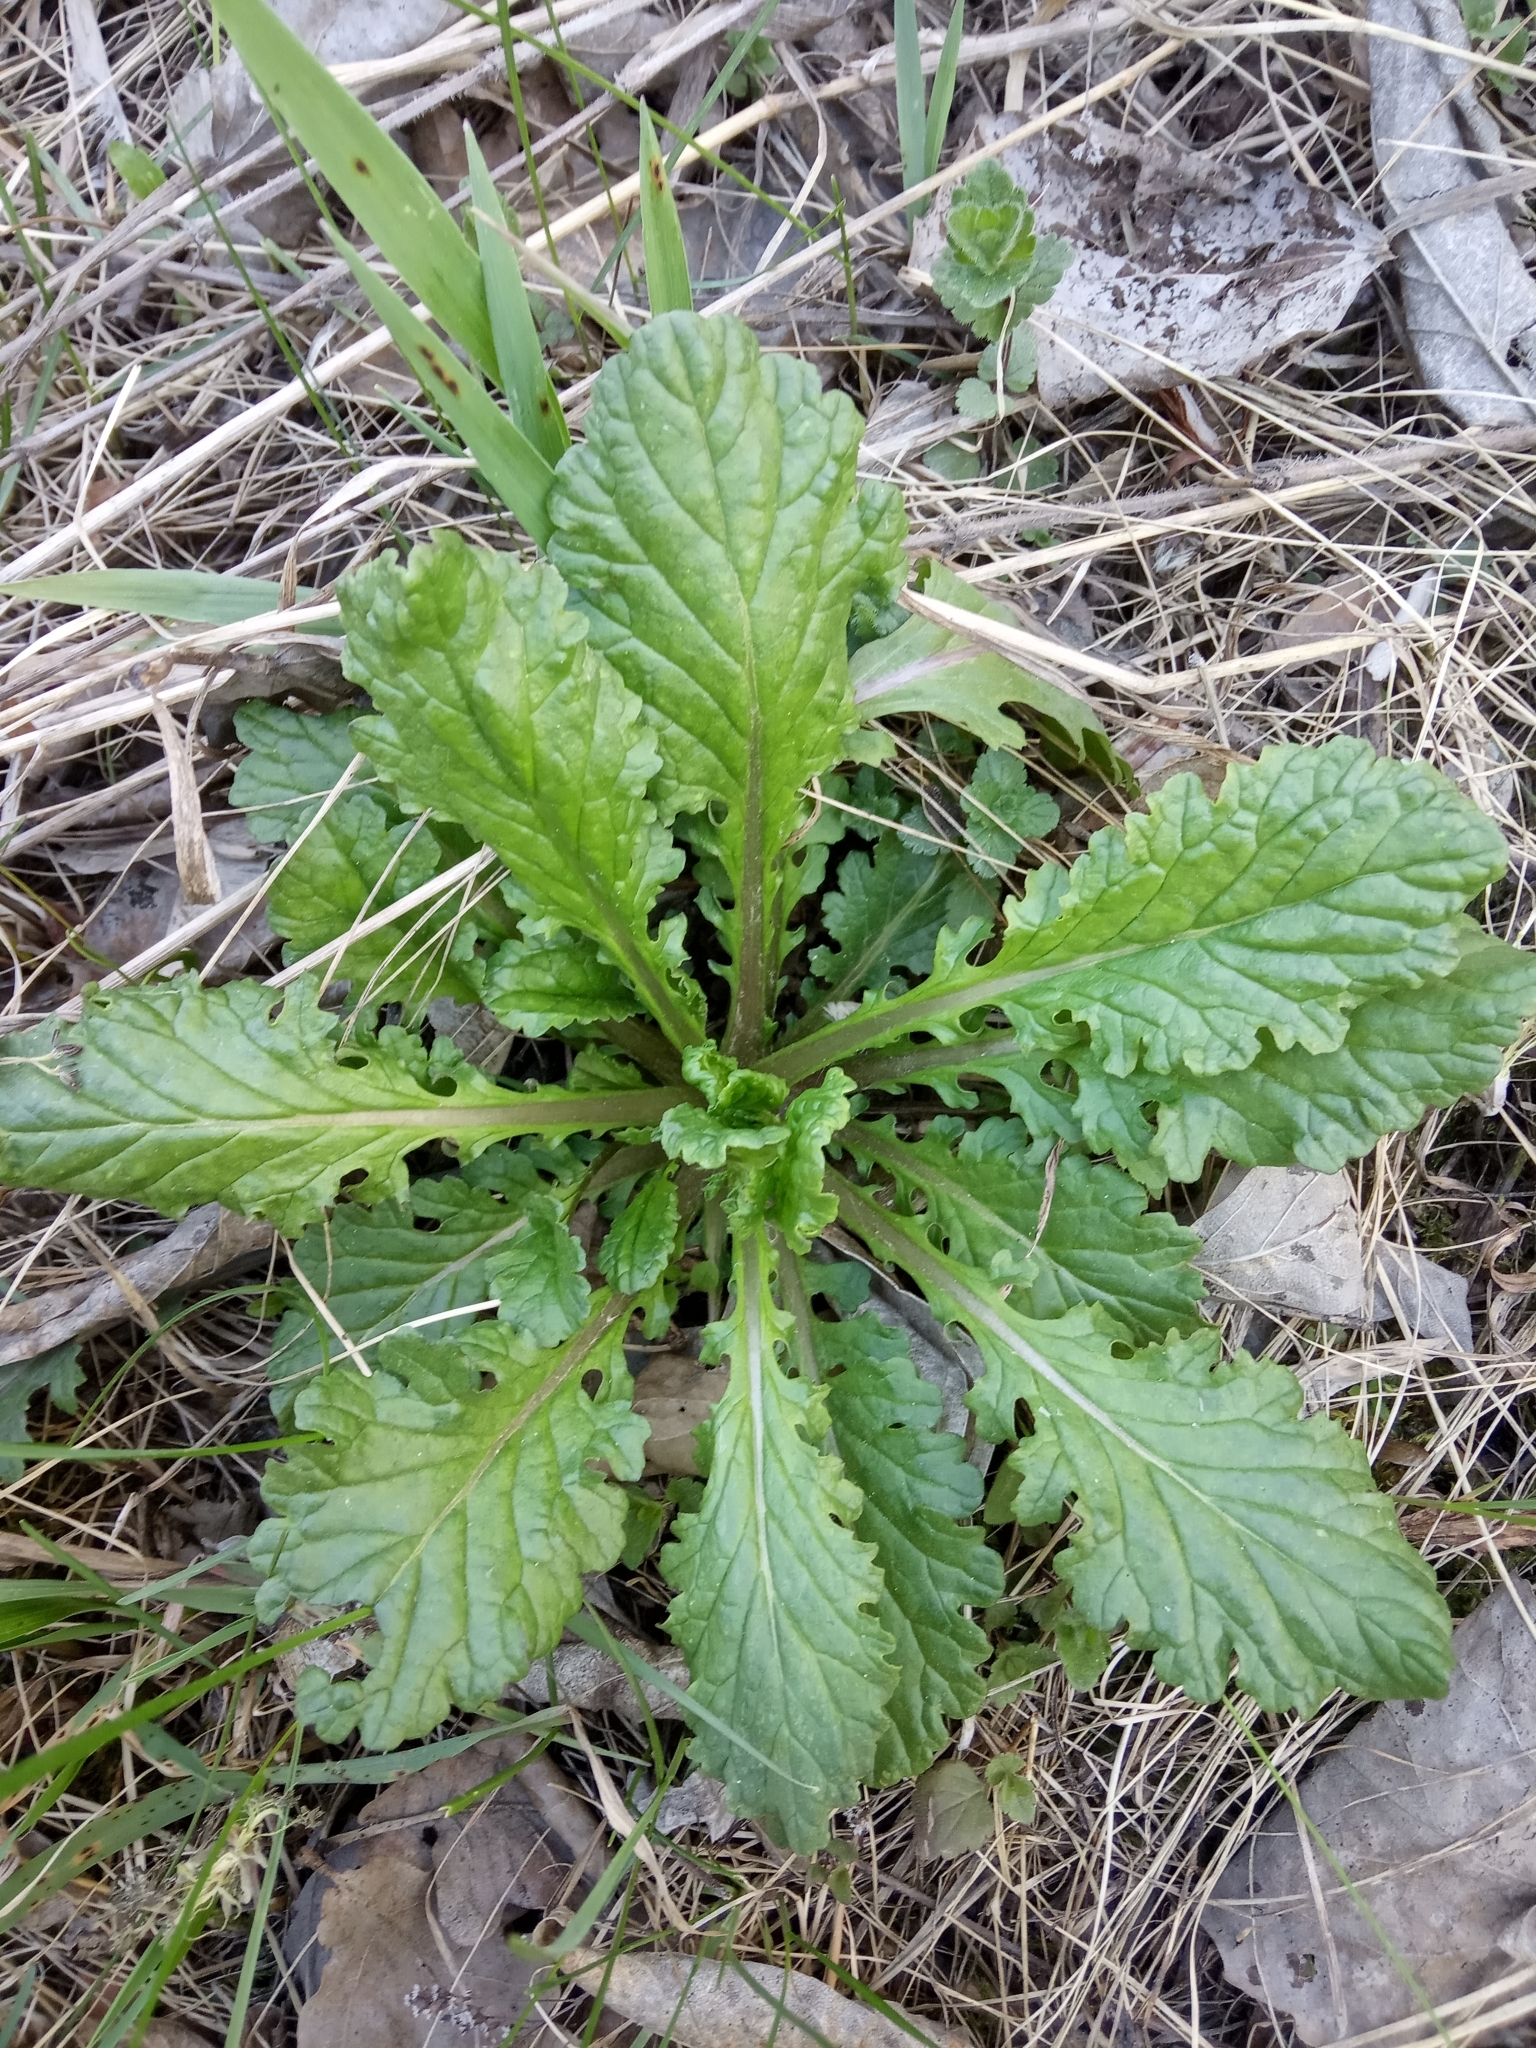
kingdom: Plantae
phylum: Tracheophyta
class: Magnoliopsida
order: Asterales
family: Asteraceae
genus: Jacobaea
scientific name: Jacobaea vulgaris
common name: Stinking willie
